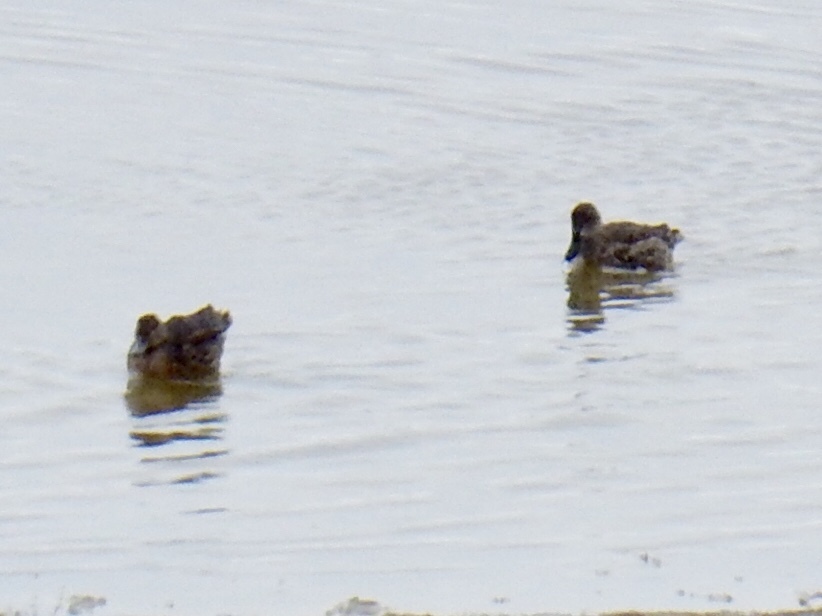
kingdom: Animalia
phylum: Chordata
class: Aves
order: Anseriformes
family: Anatidae
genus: Spatula
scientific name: Spatula discors
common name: Blue-winged teal
